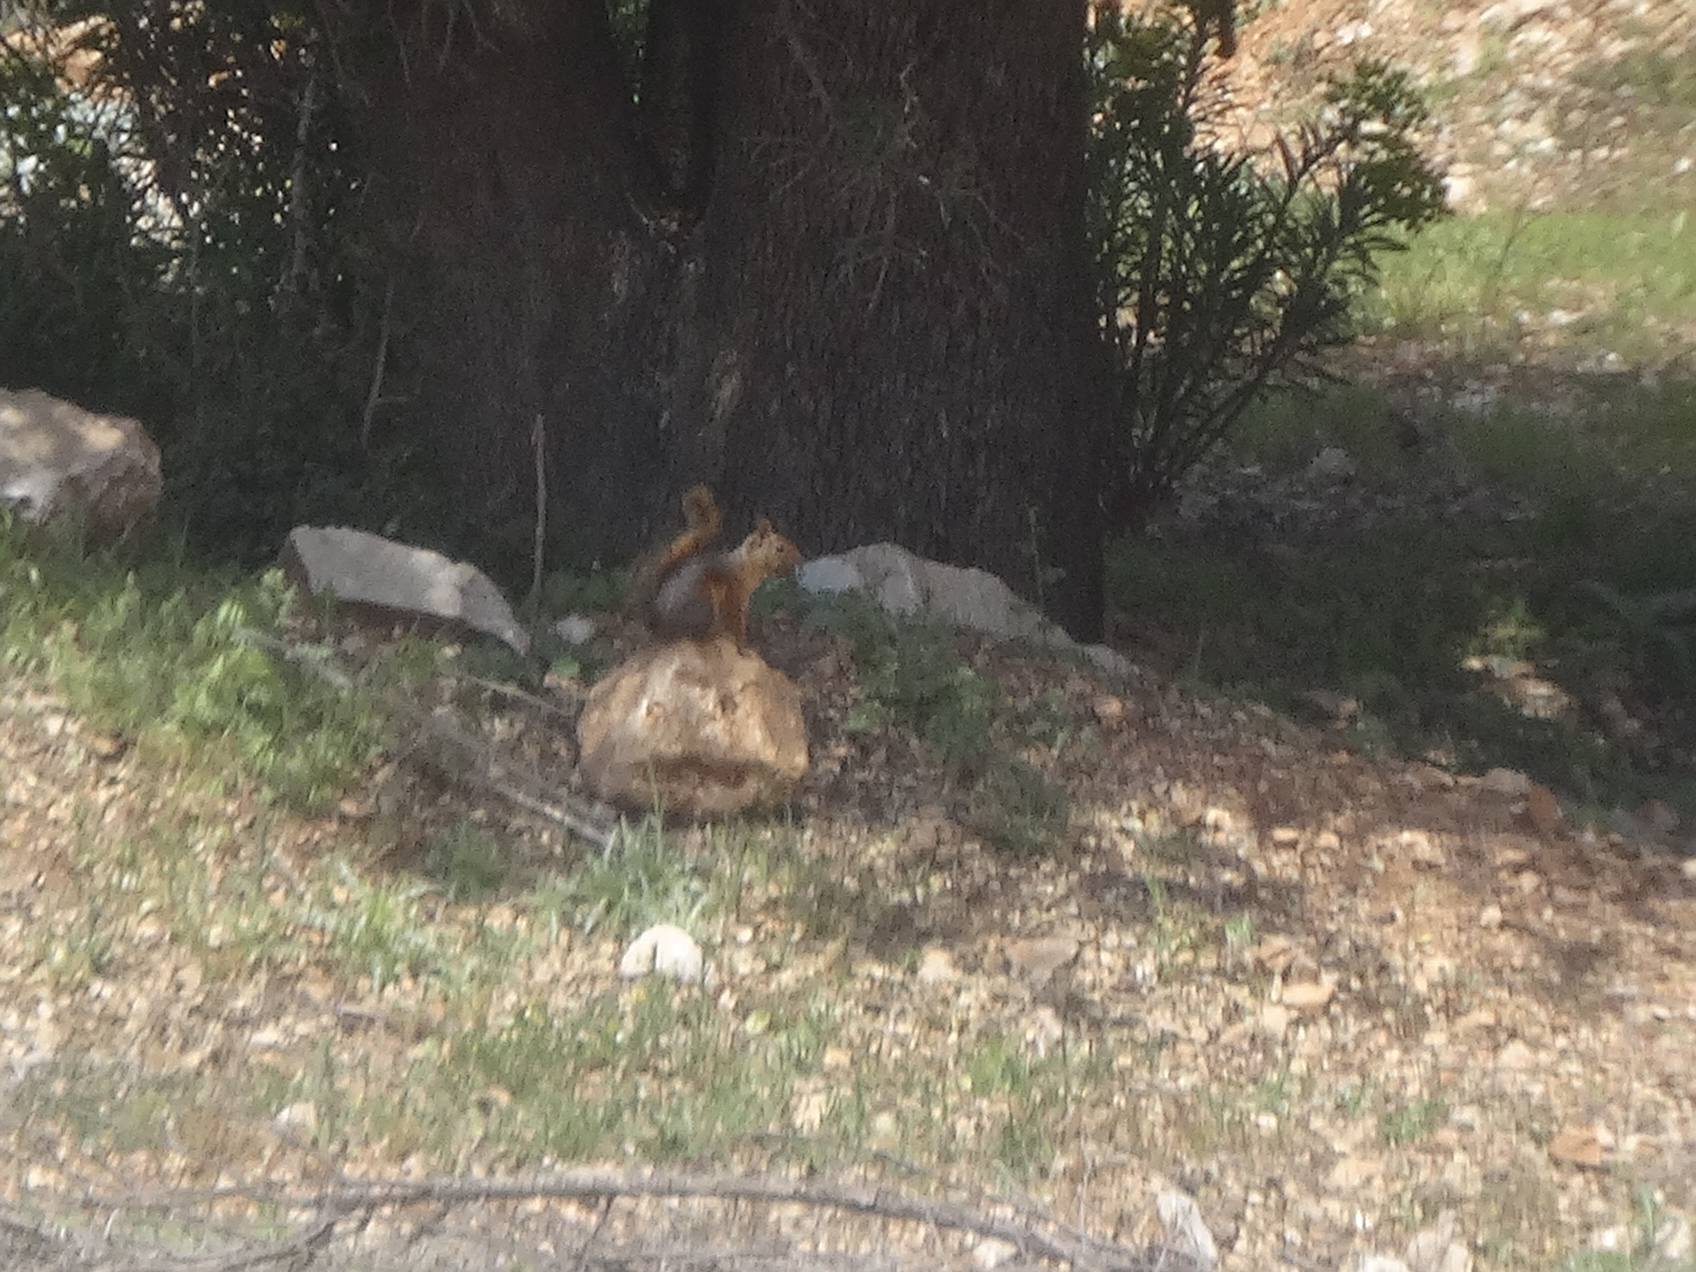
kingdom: Animalia
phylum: Chordata
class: Mammalia
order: Rodentia
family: Sciuridae
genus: Sciurus
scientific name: Sciurus anomalus
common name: Caucasian squirrel
